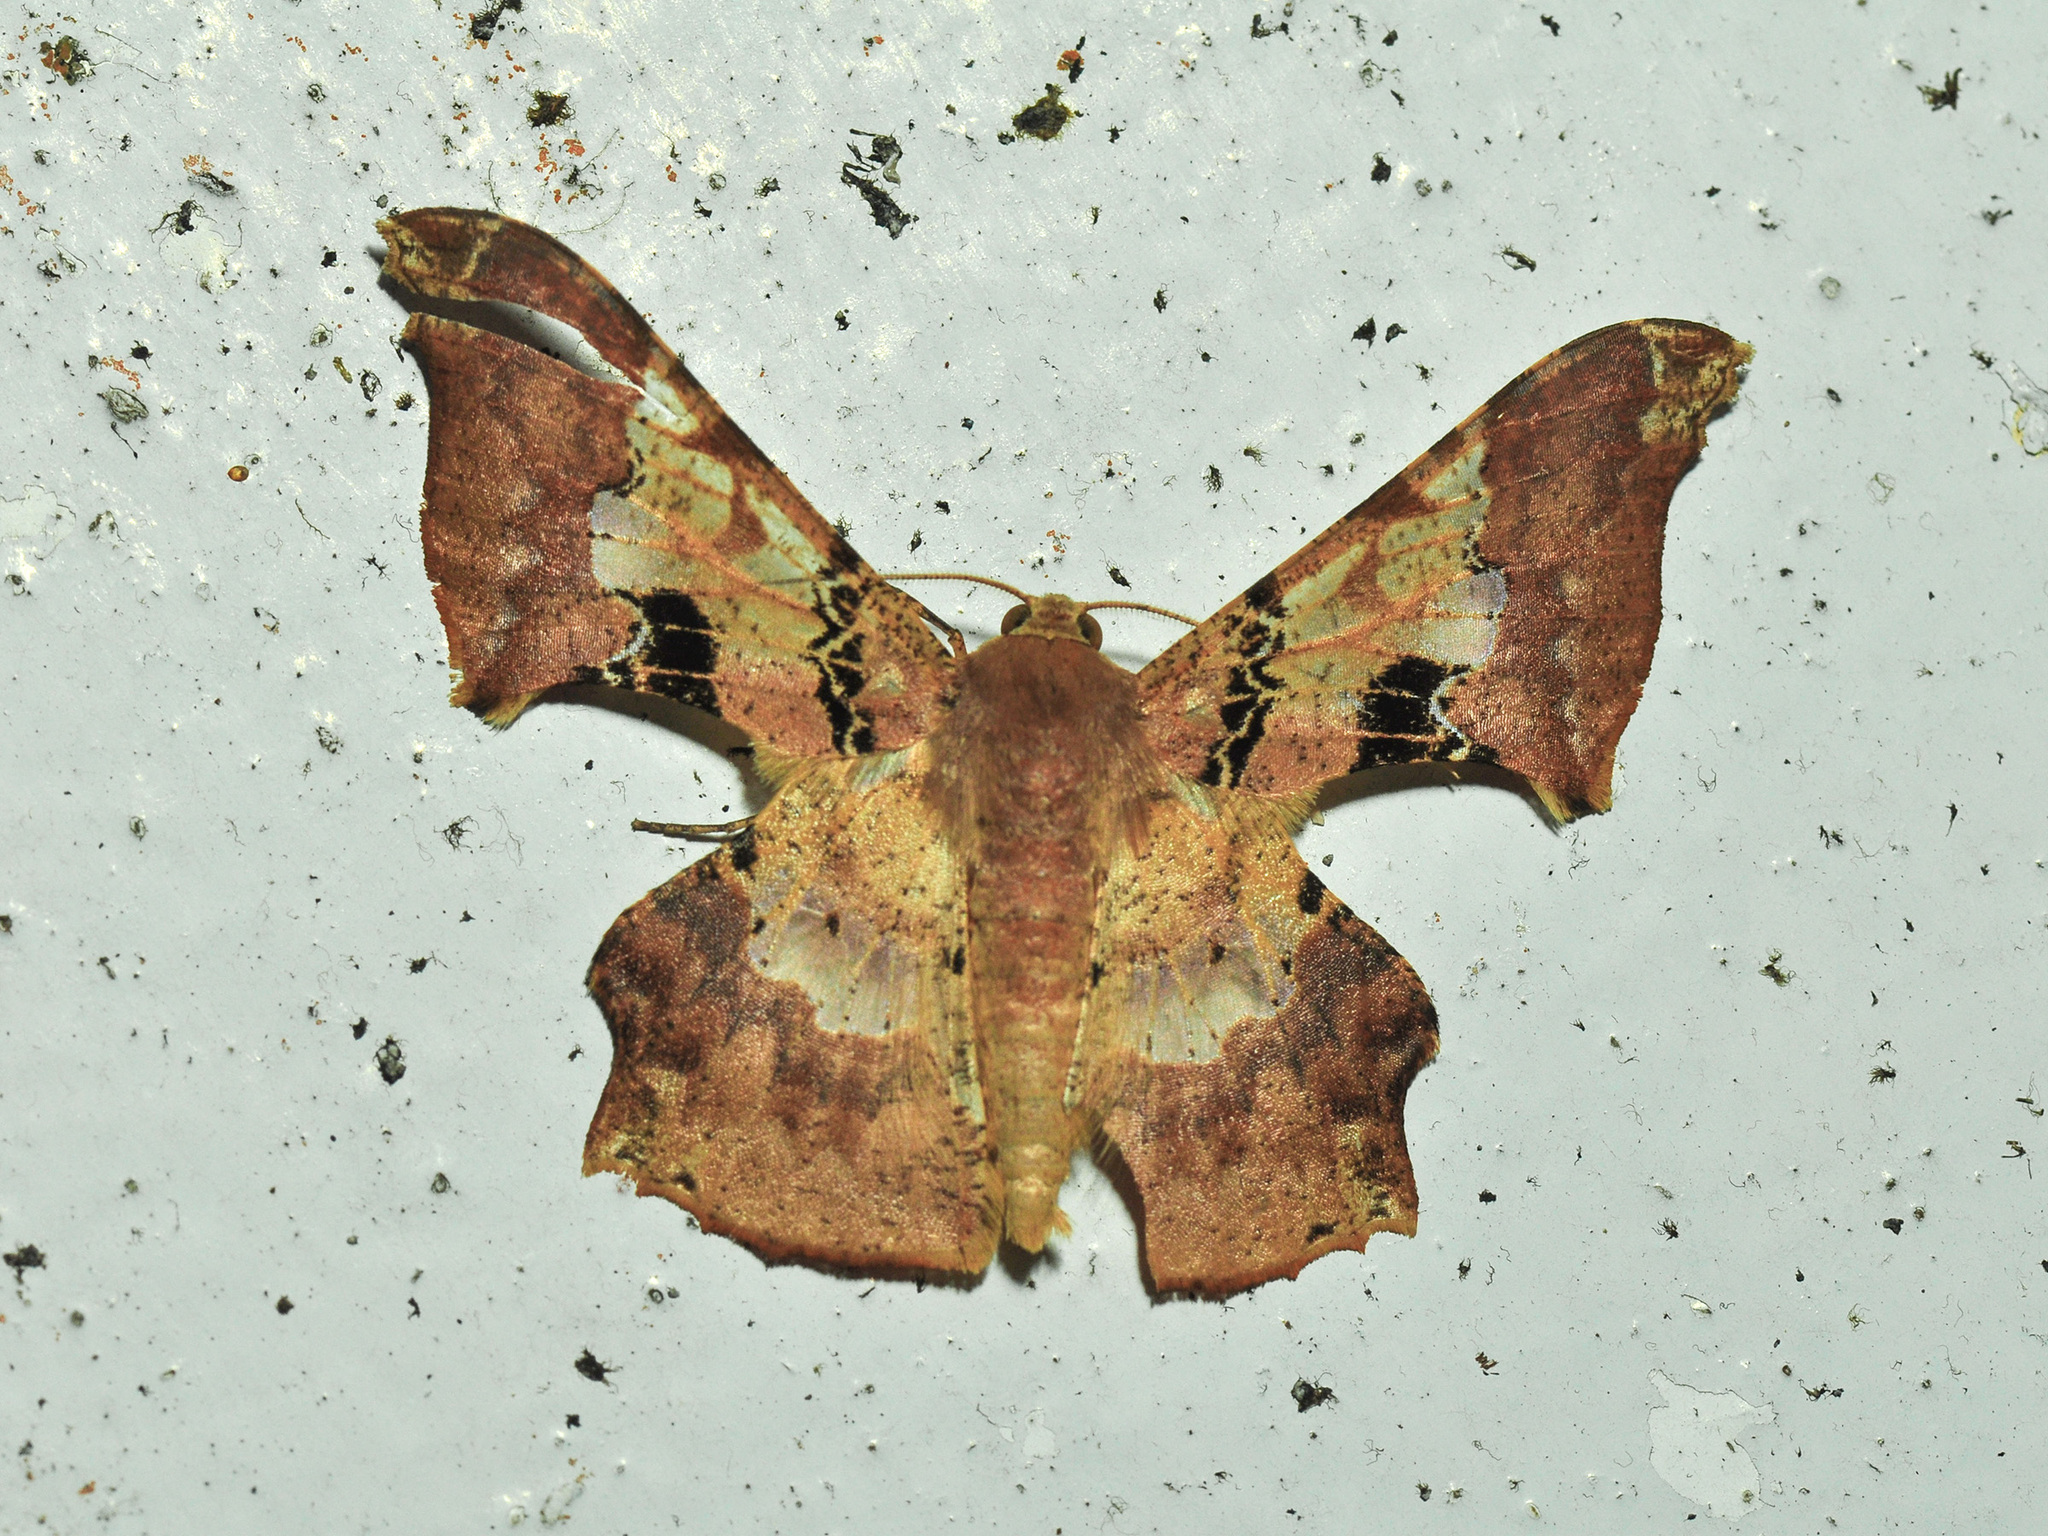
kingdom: Animalia
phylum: Arthropoda
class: Insecta
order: Lepidoptera
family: Geometridae
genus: Krananda
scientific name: Krananda lucidaria
